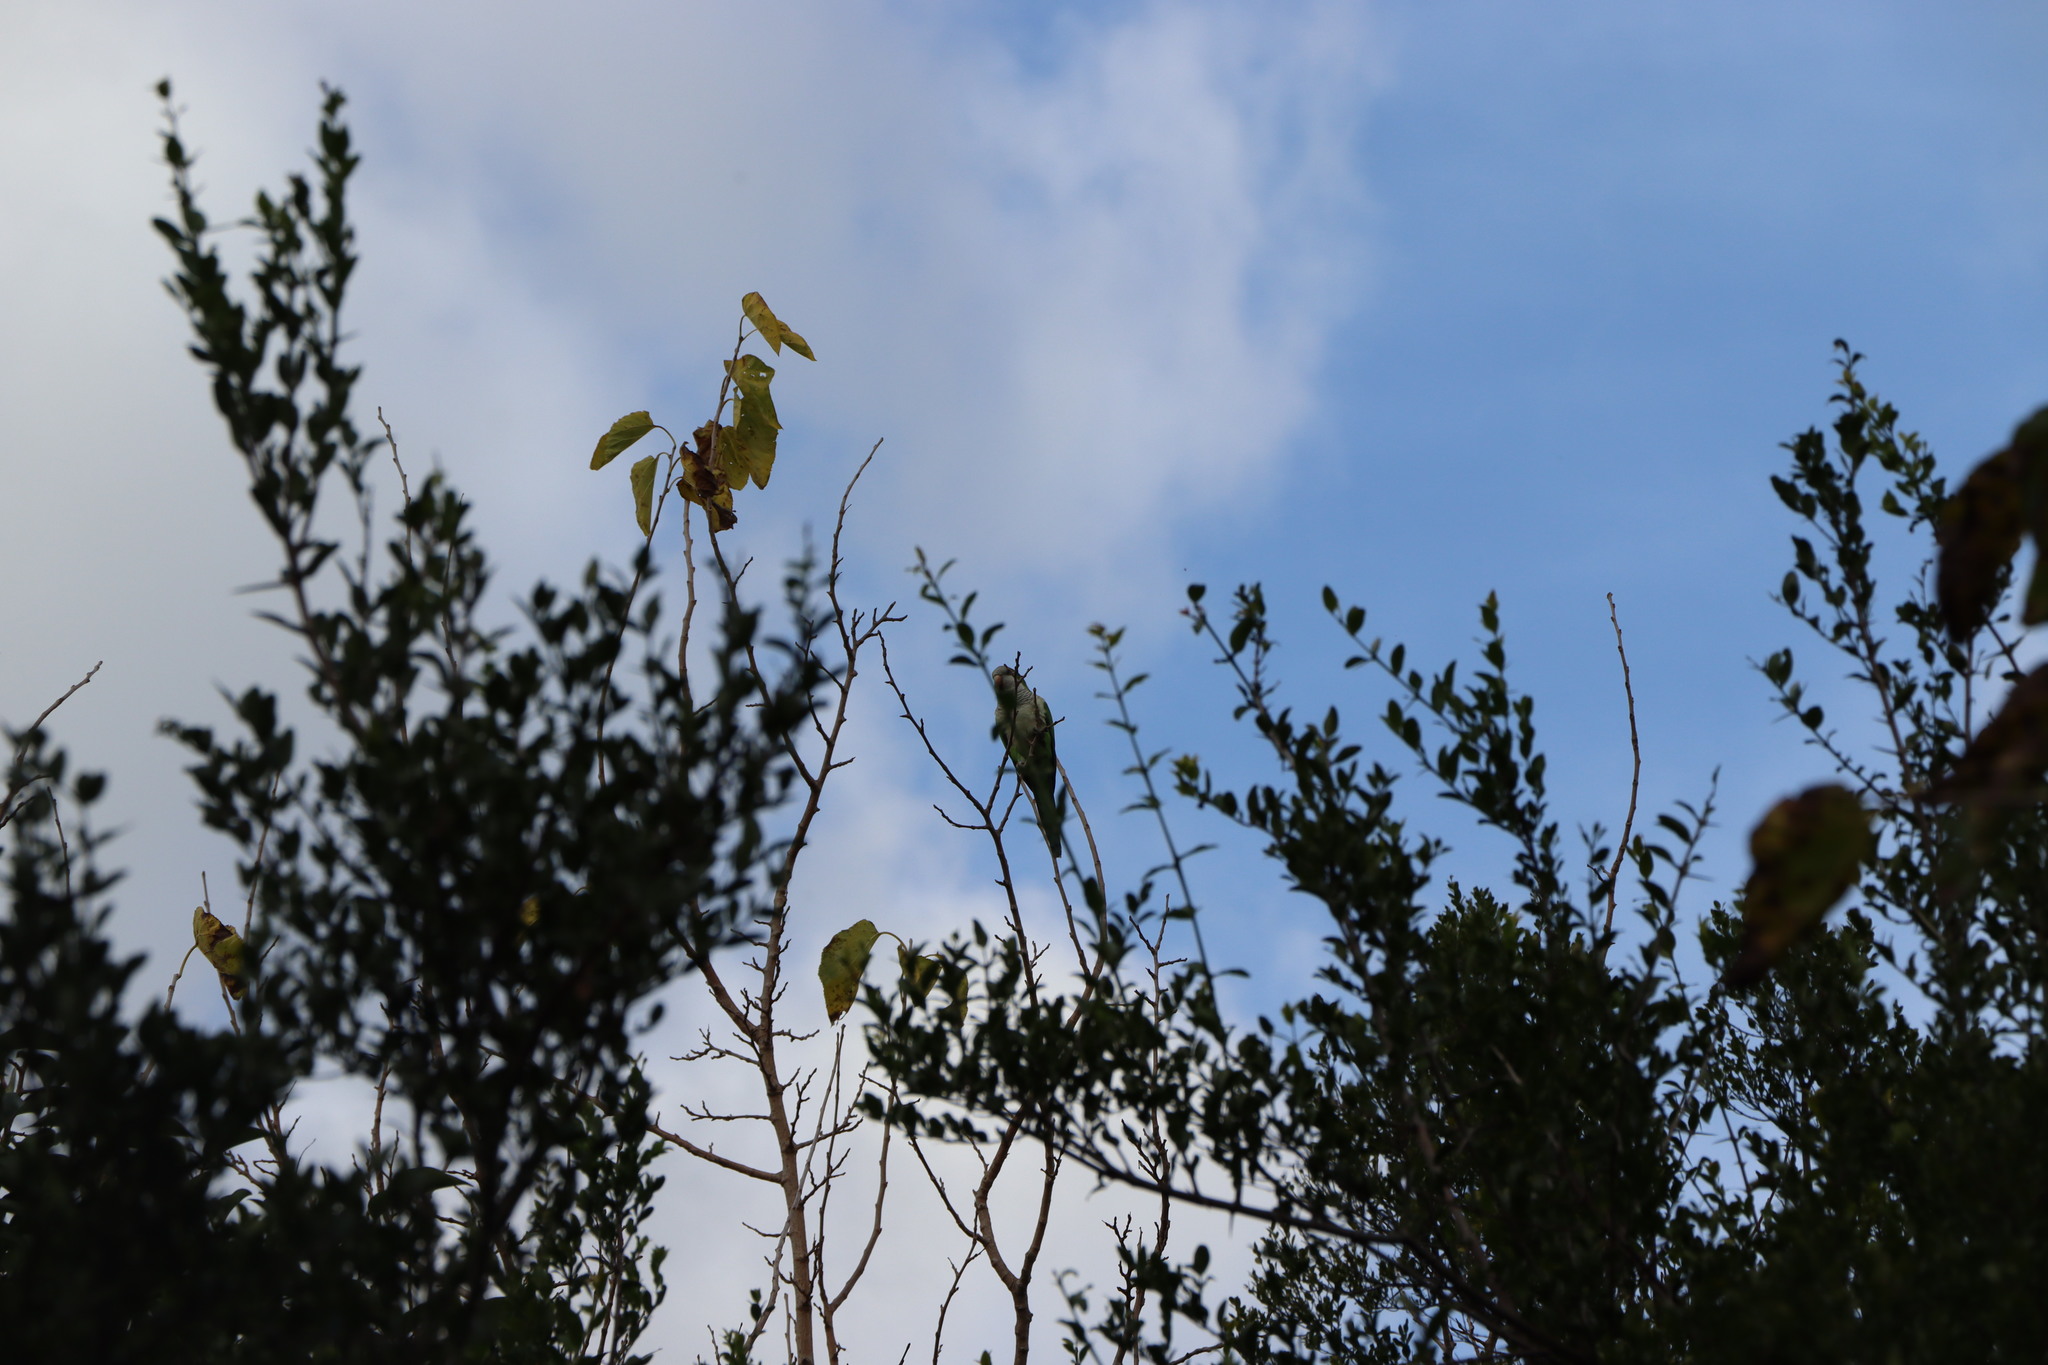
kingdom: Animalia
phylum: Chordata
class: Aves
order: Psittaciformes
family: Psittacidae
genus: Myiopsitta
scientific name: Myiopsitta monachus
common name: Monk parakeet
